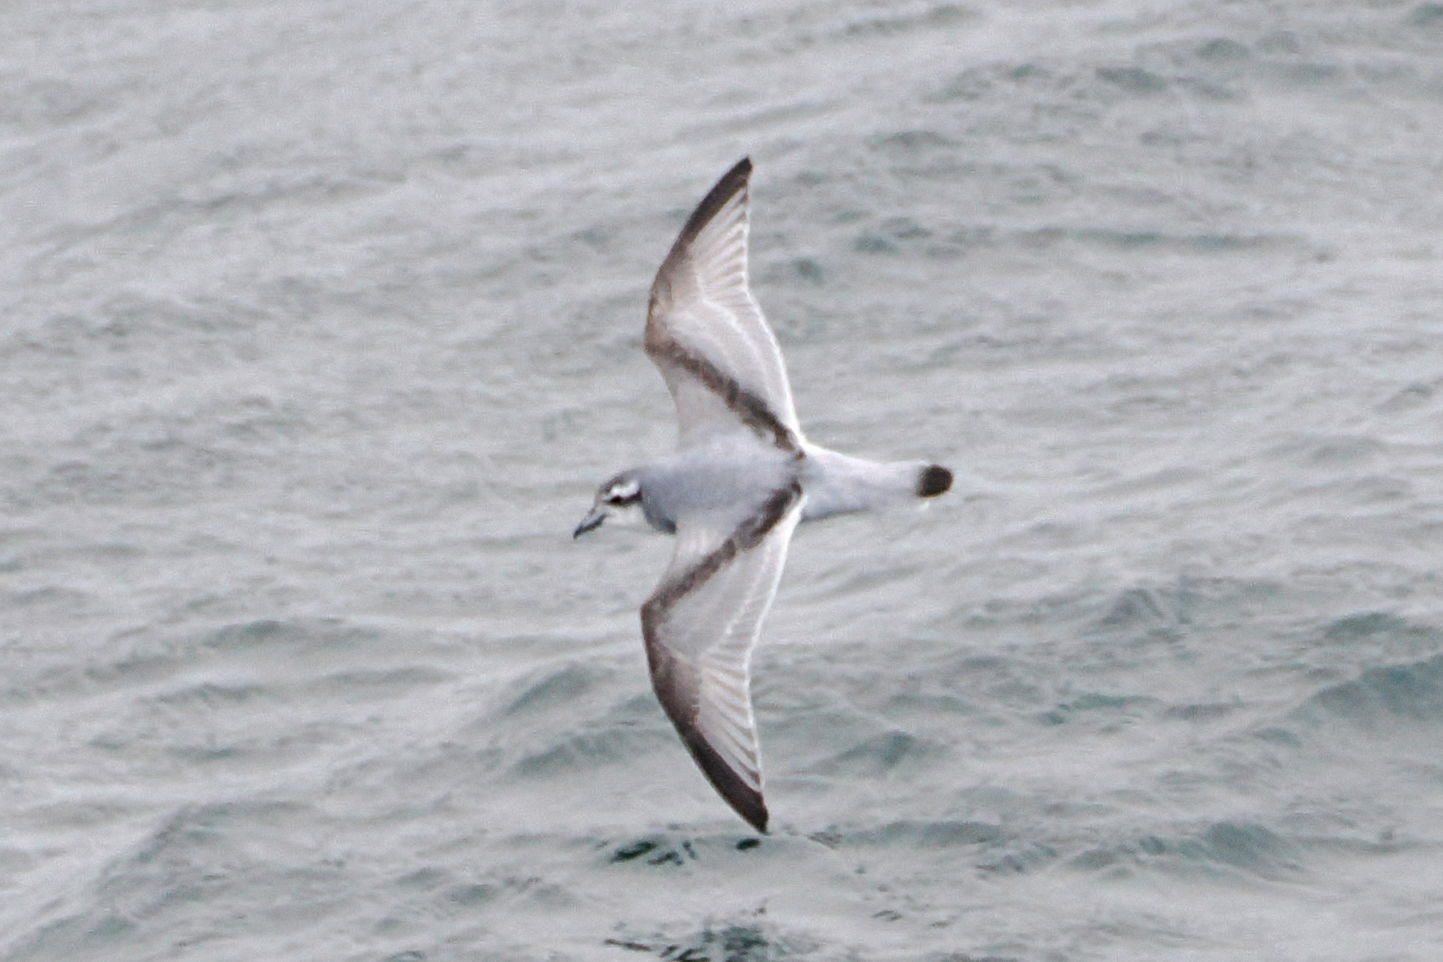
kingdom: Animalia
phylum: Chordata
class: Aves
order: Procellariiformes
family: Procellariidae
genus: Pachyptila
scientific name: Pachyptila desolata
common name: Antarctic prion
